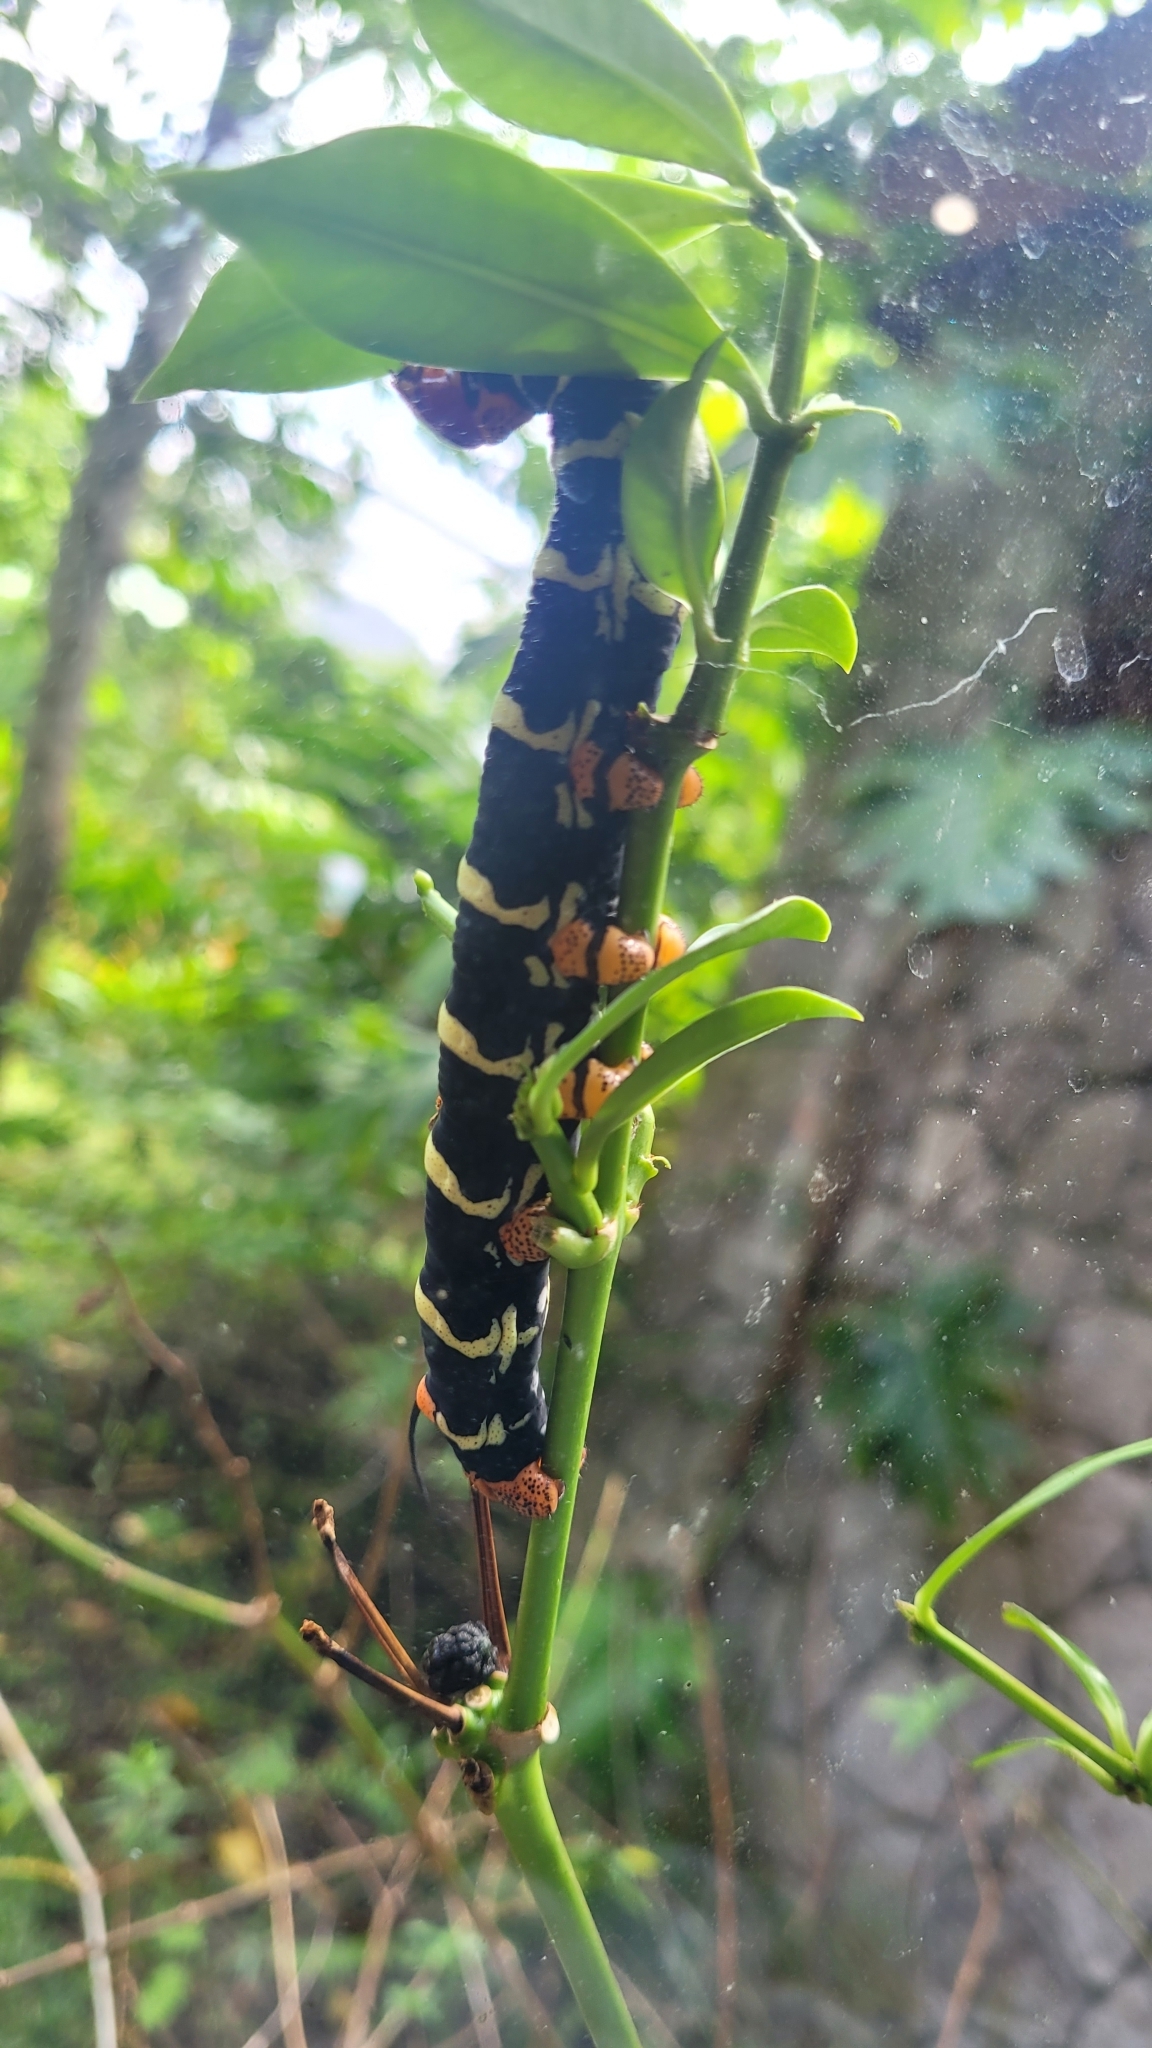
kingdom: Animalia
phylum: Arthropoda
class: Insecta
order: Lepidoptera
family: Sphingidae
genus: Pseudosphinx
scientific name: Pseudosphinx tetrio
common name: Tetrio sphinx
